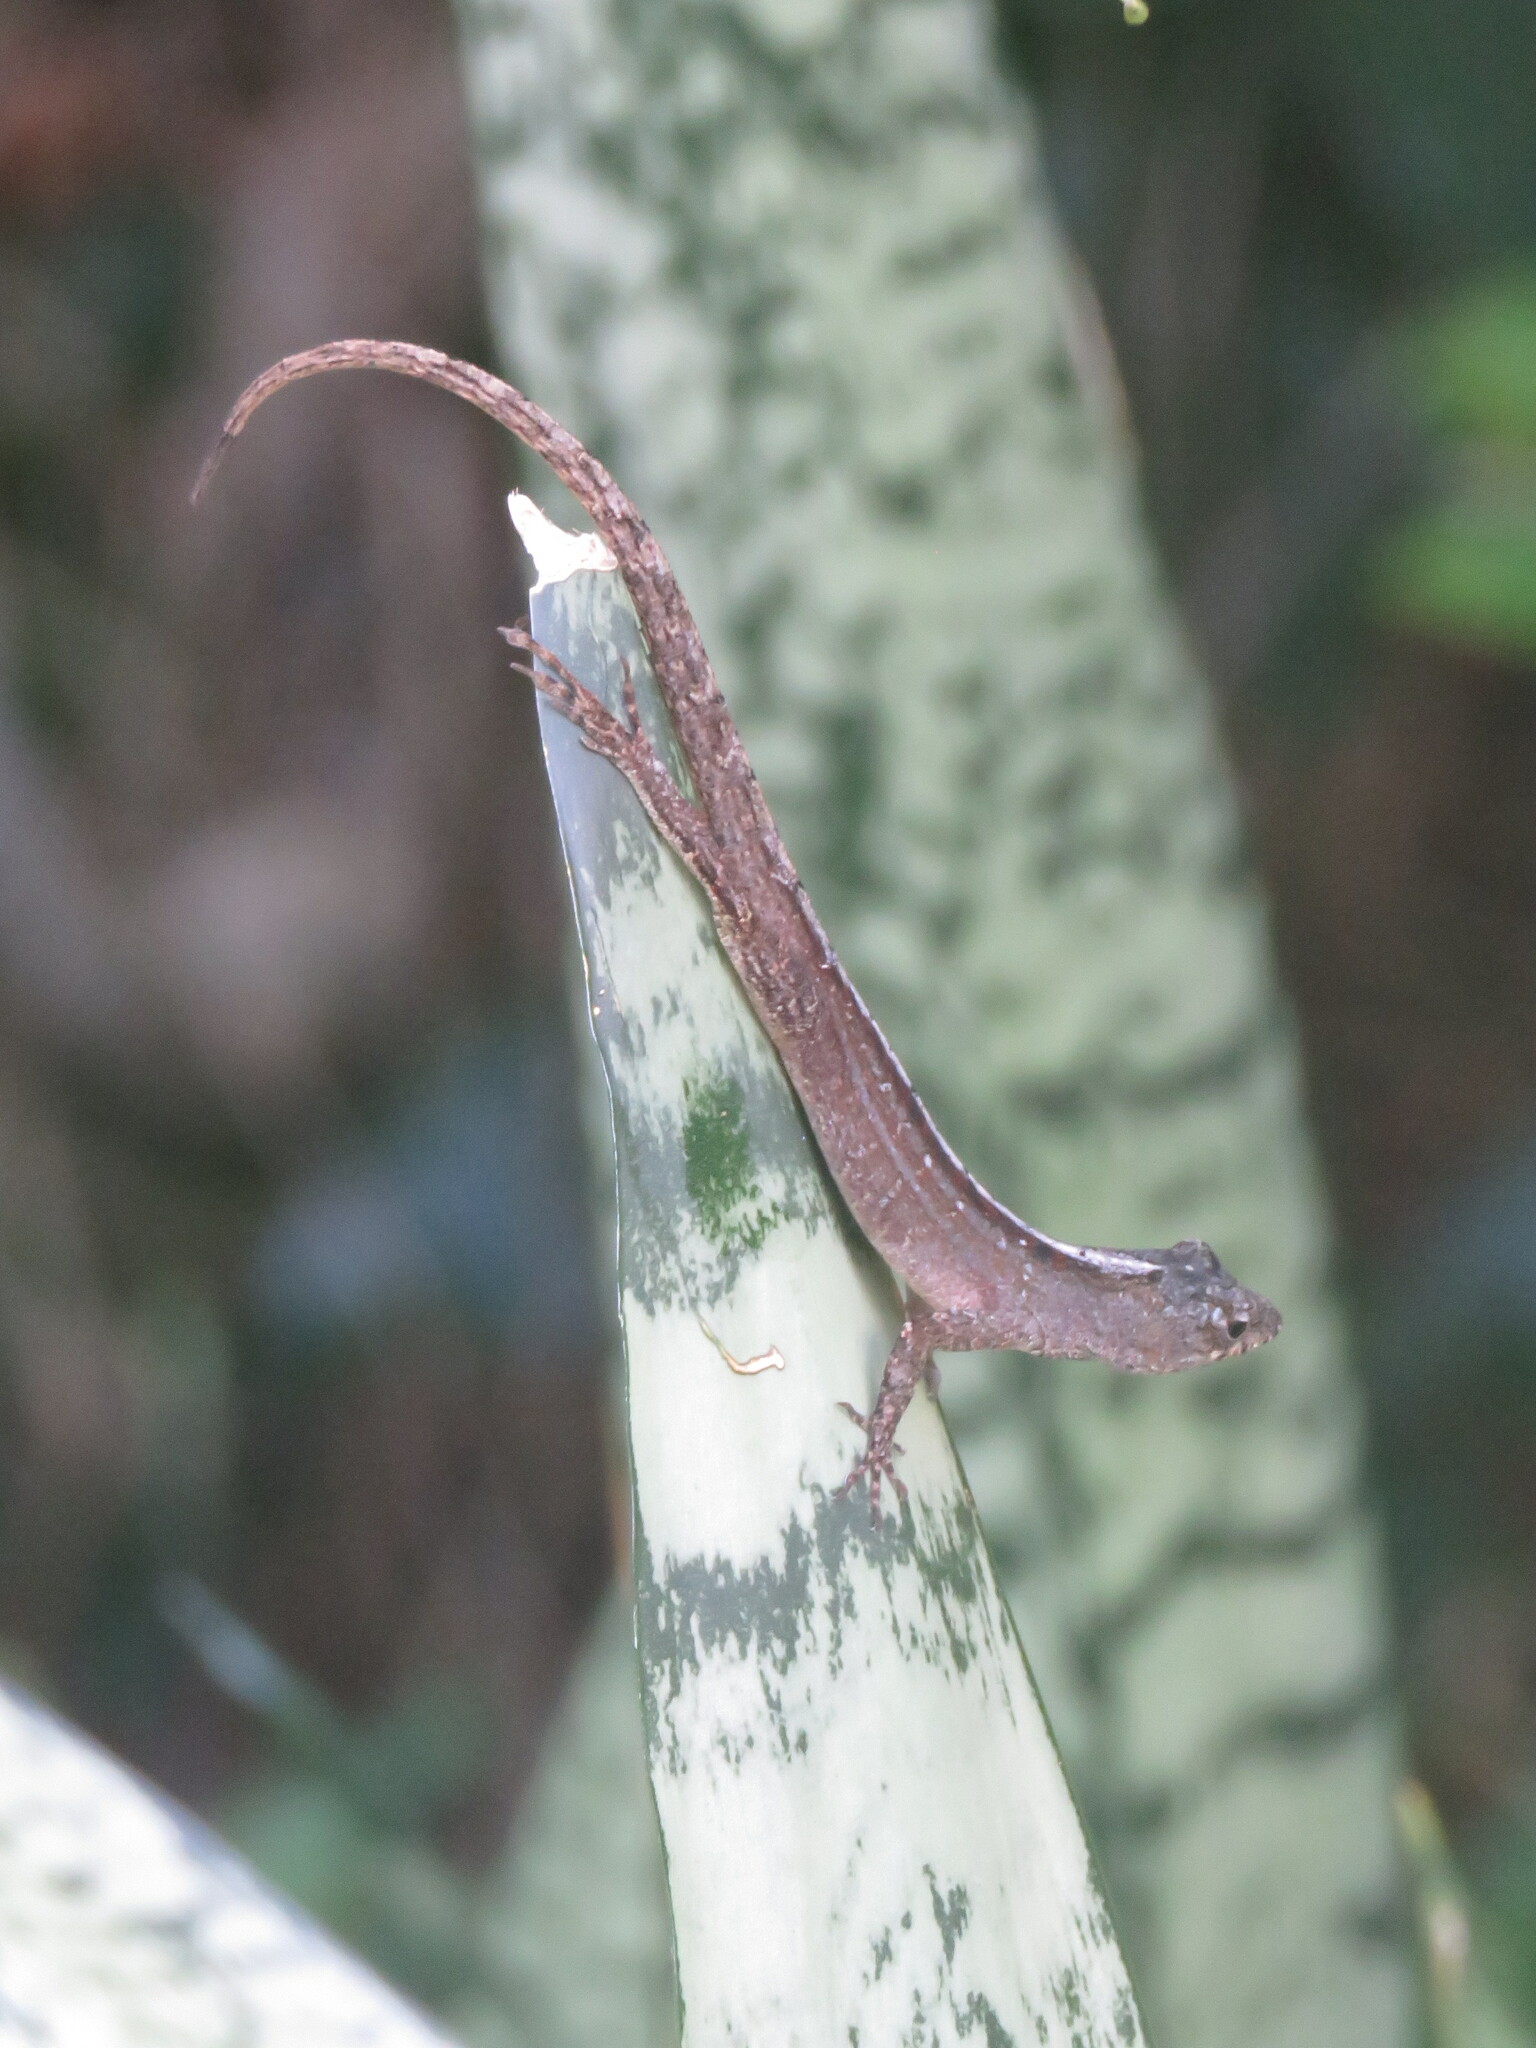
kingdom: Animalia
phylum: Chordata
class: Squamata
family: Dactyloidae
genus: Anolis
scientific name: Anolis sagrei
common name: Brown anole
